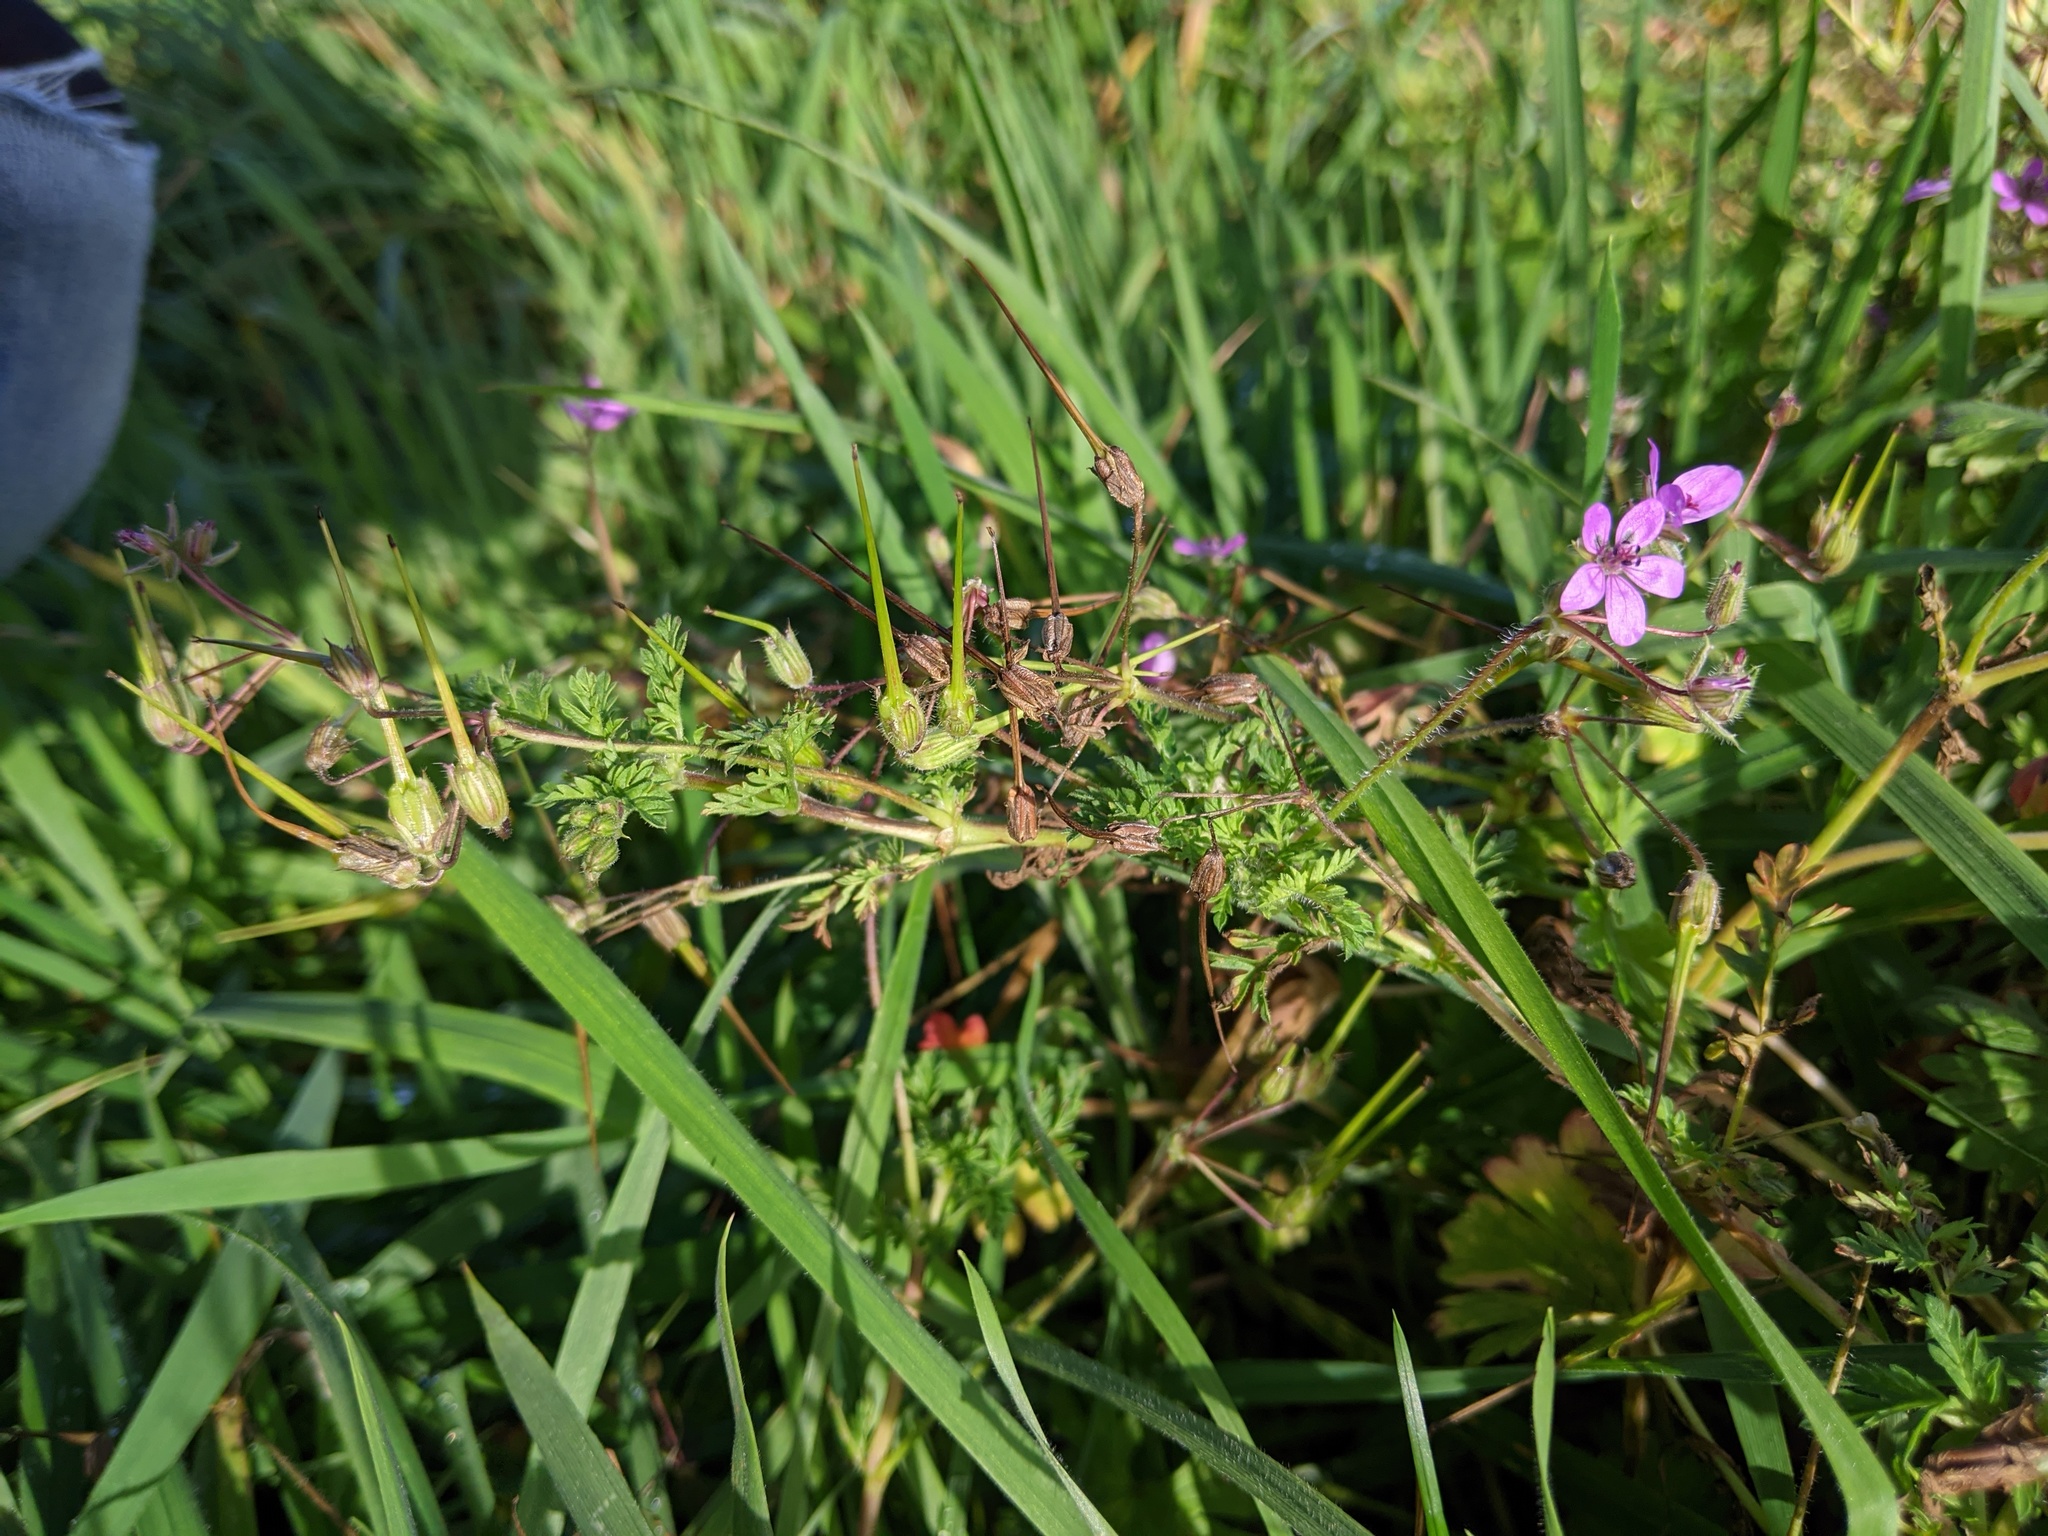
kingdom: Plantae
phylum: Tracheophyta
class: Magnoliopsida
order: Geraniales
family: Geraniaceae
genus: Erodium
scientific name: Erodium cicutarium
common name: Common stork's-bill
